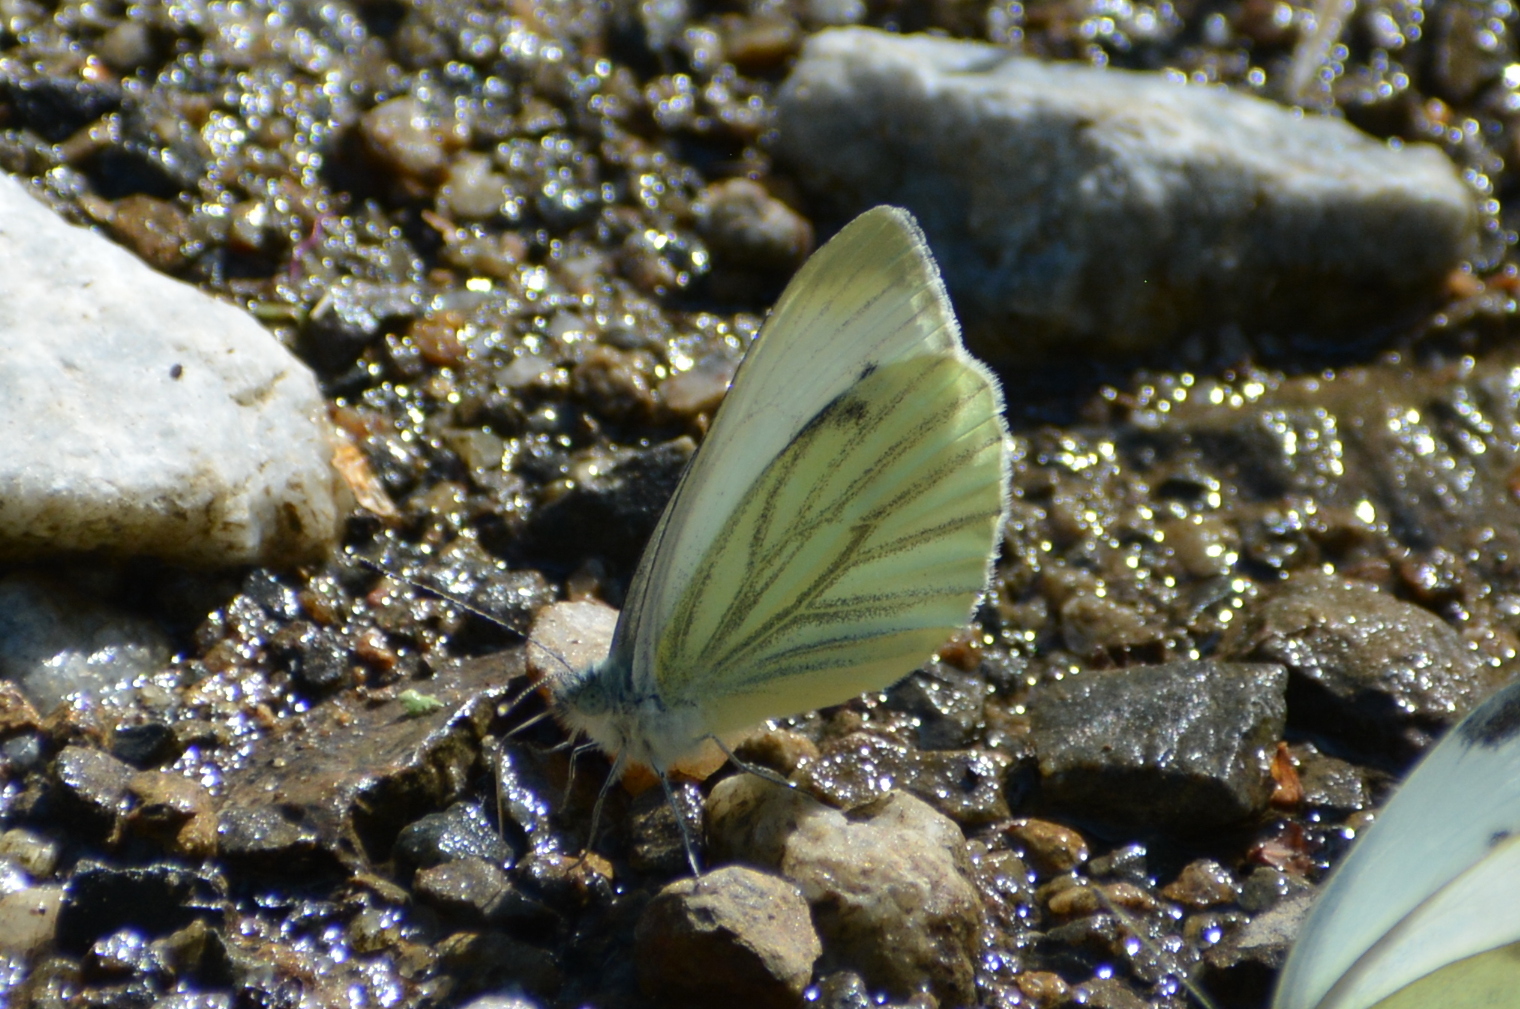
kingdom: Animalia
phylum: Arthropoda
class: Insecta
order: Lepidoptera
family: Pieridae
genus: Pieris
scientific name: Pieris napi
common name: Green-veined white
